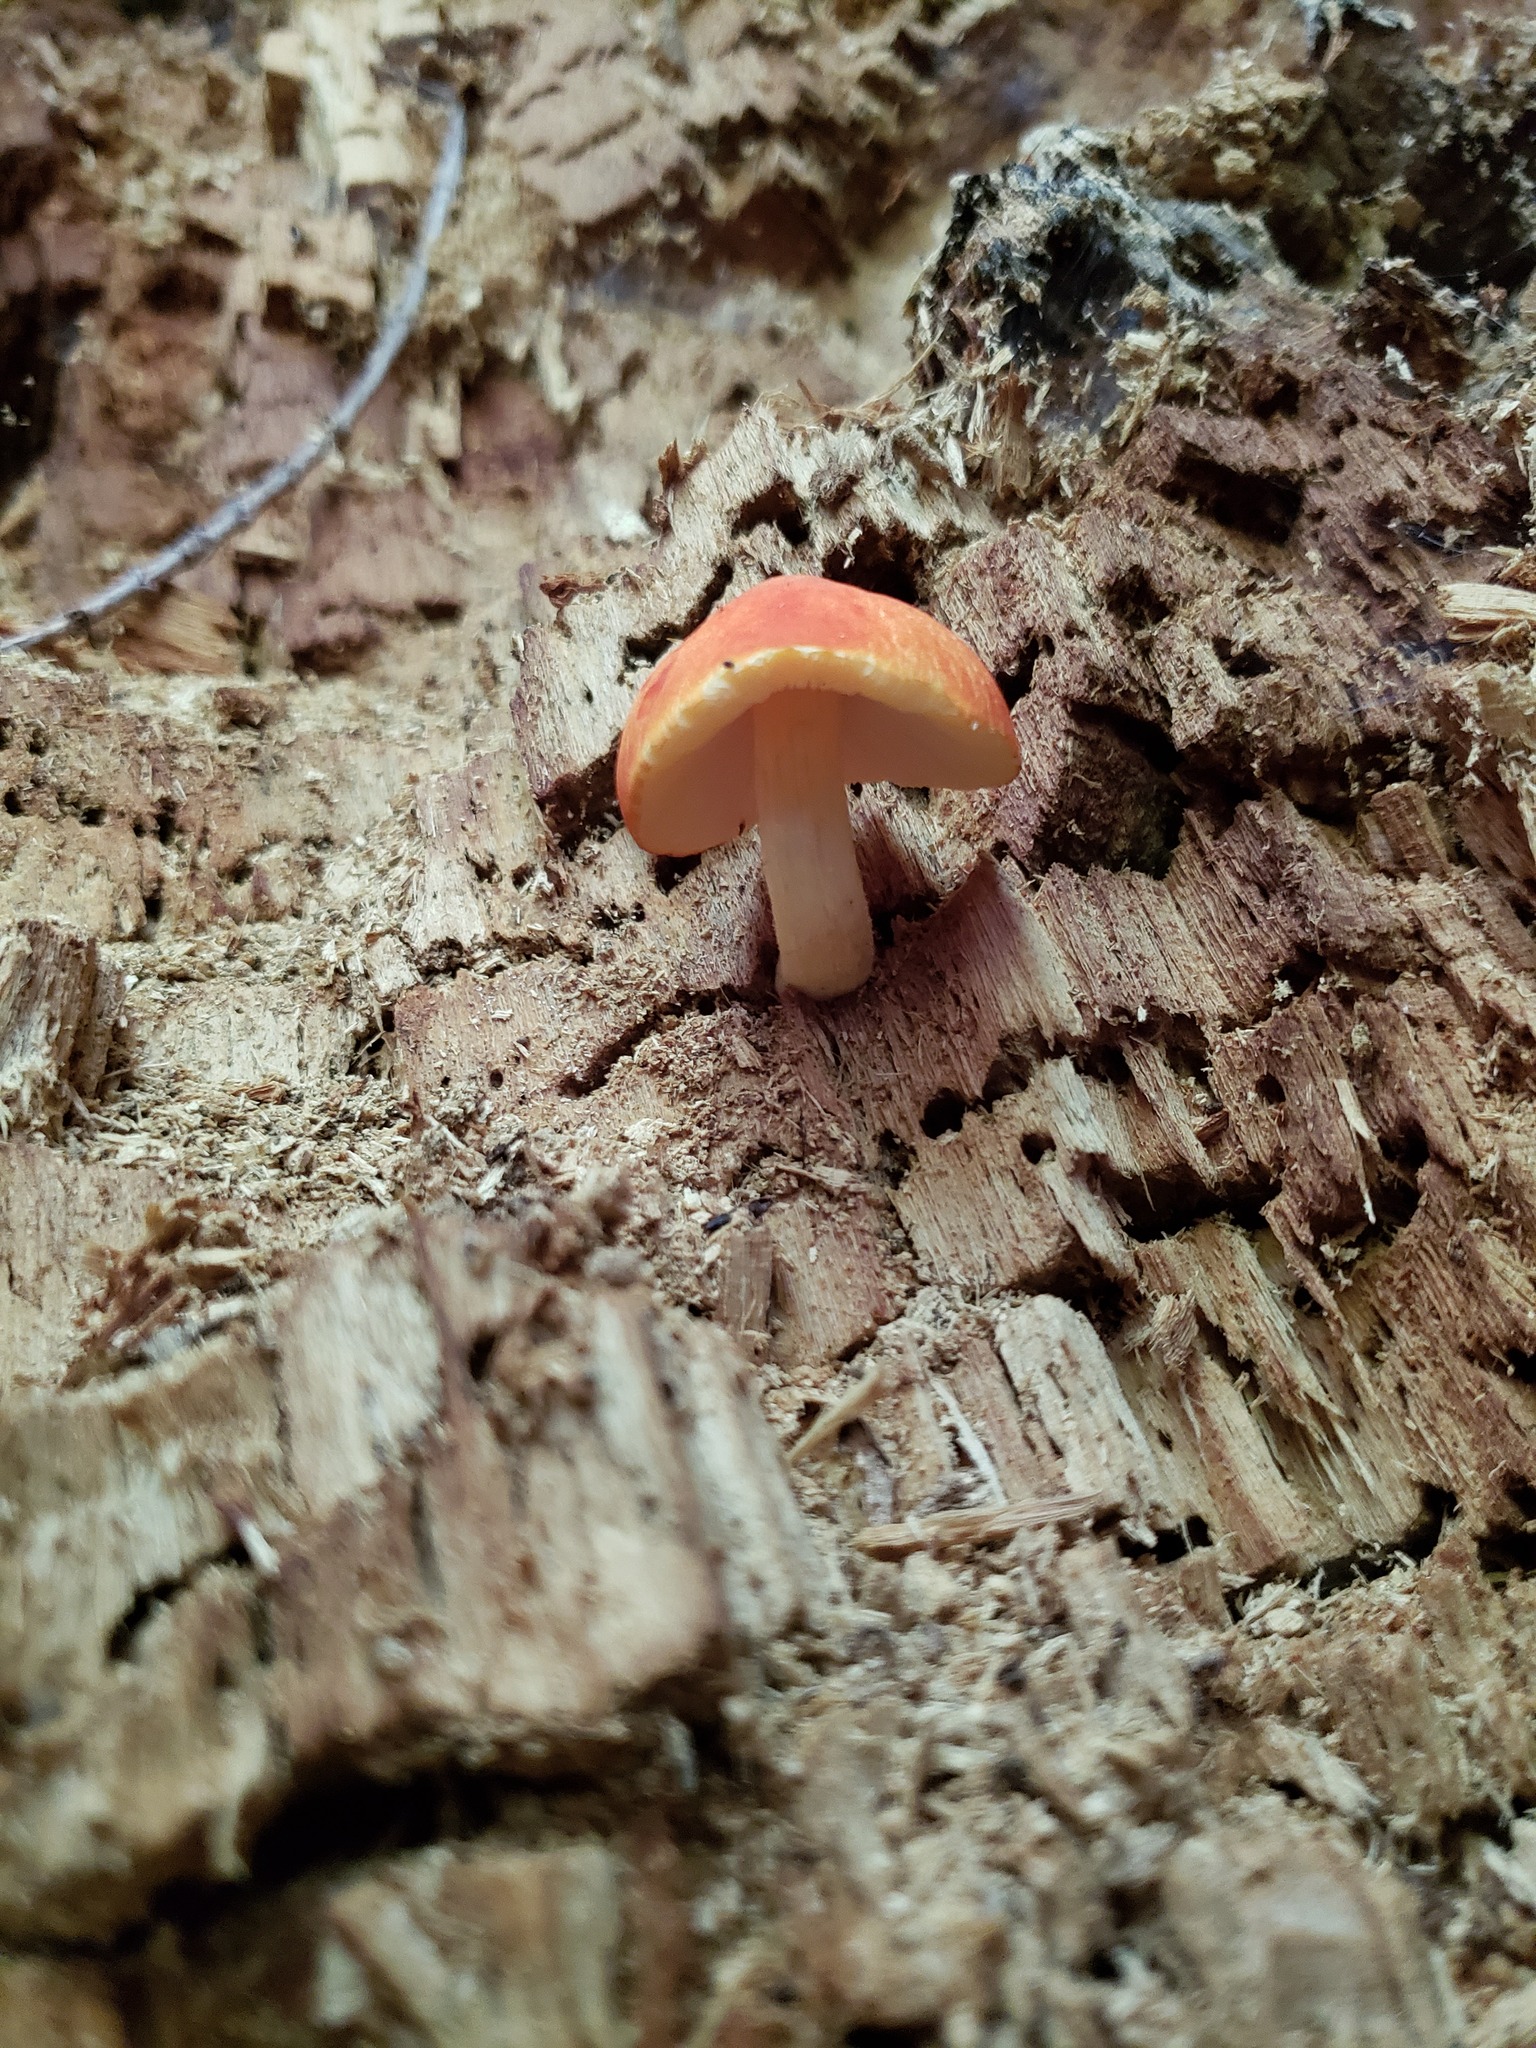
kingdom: Fungi
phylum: Basidiomycota
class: Agaricomycetes
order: Agaricales
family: Pluteaceae
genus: Pluteus
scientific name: Pluteus aurantiorugosus
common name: Flame shield
